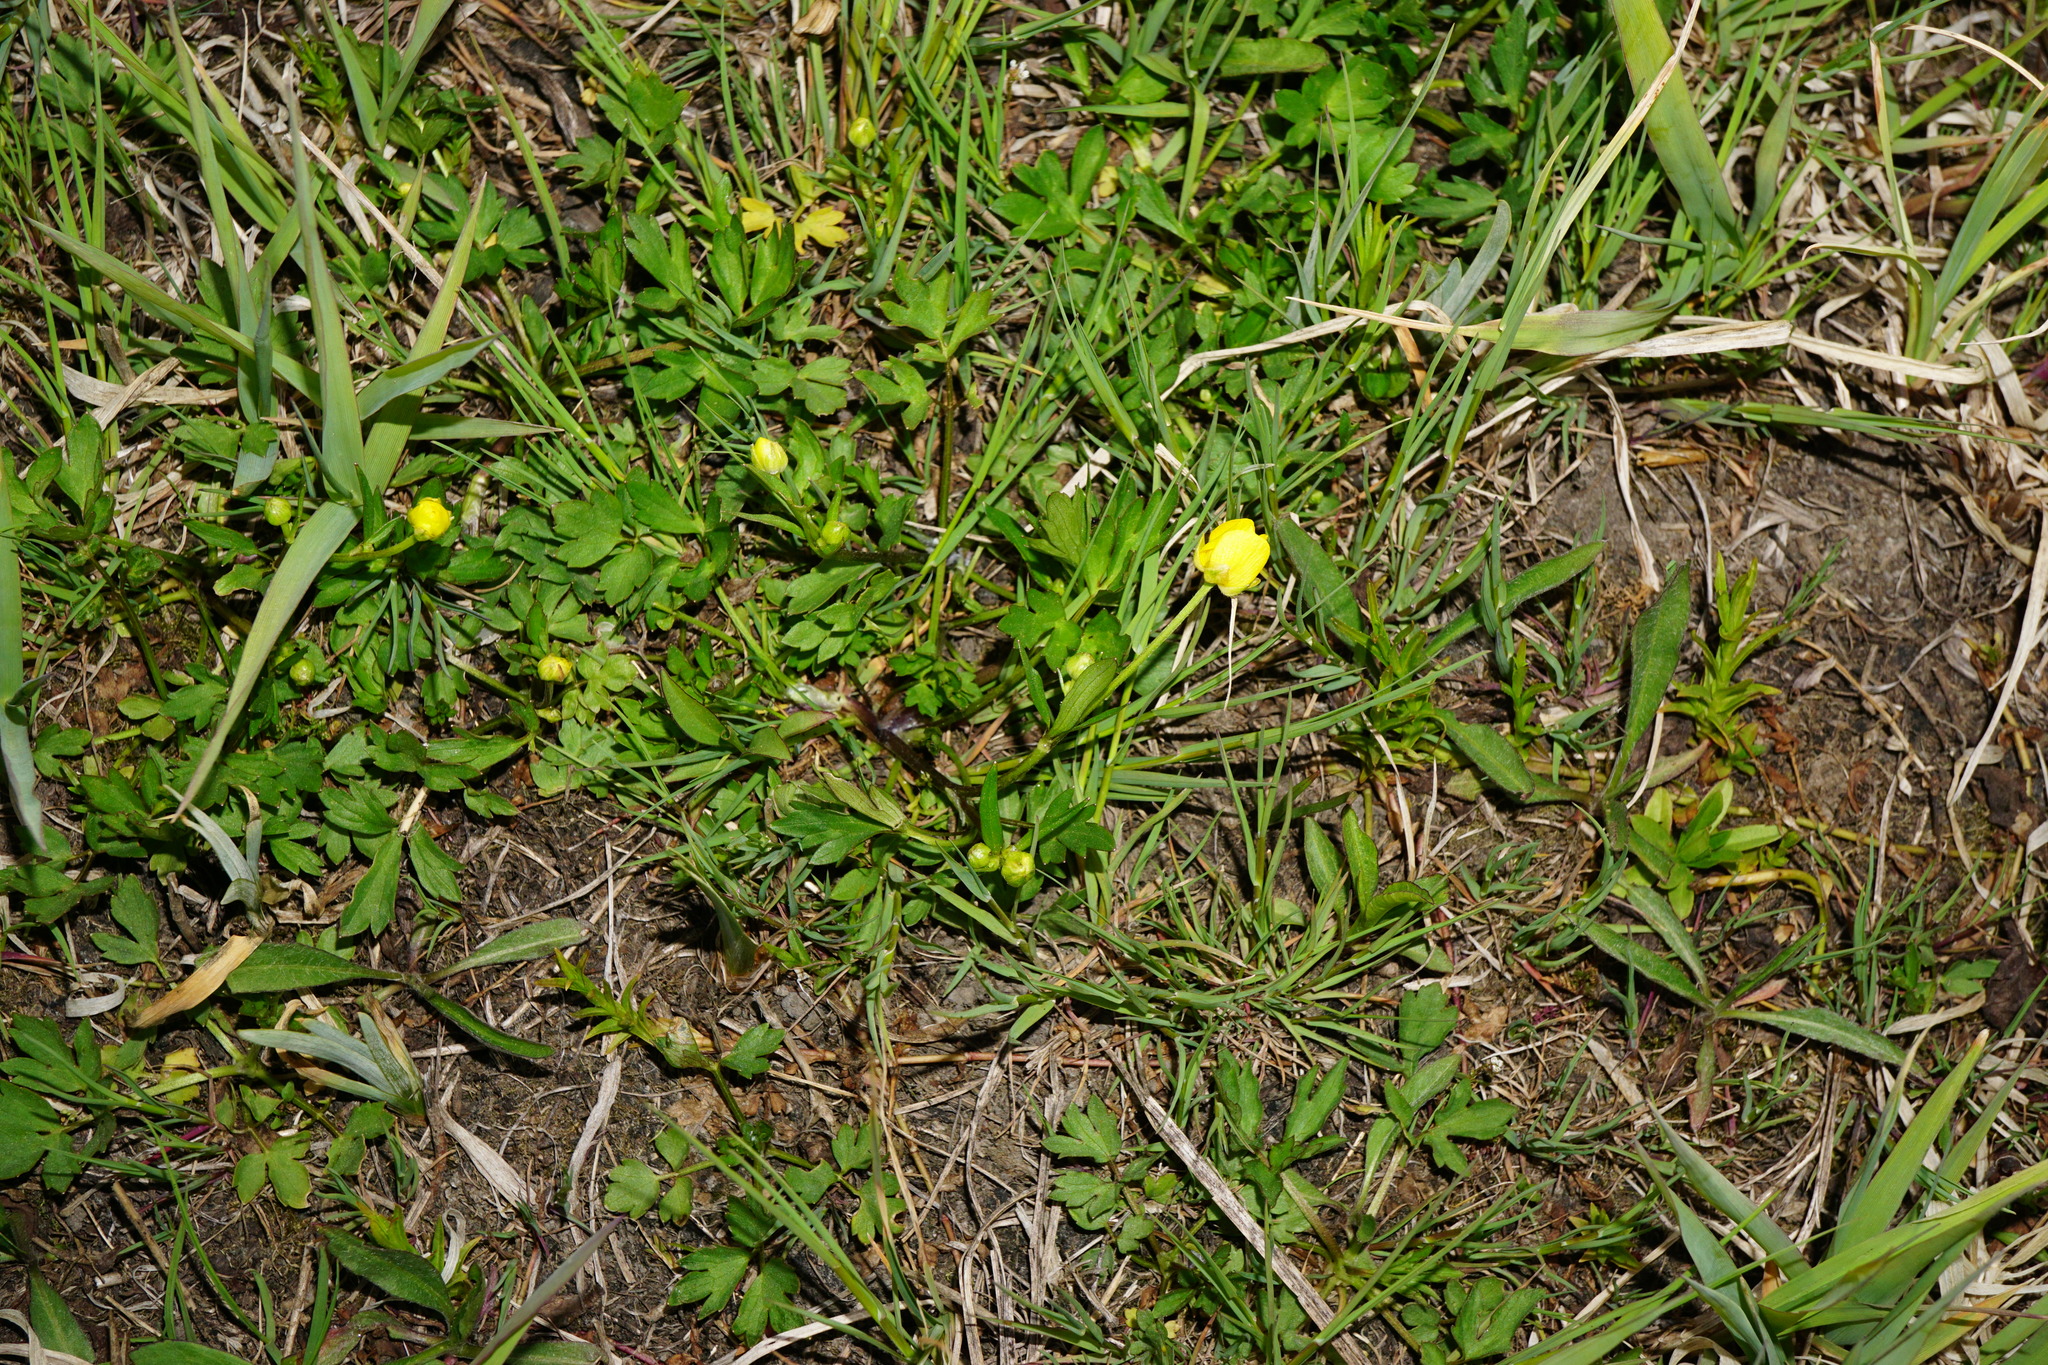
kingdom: Plantae
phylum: Tracheophyta
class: Magnoliopsida
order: Ranunculales
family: Ranunculaceae
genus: Ranunculus
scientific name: Ranunculus repens
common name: Creeping buttercup
